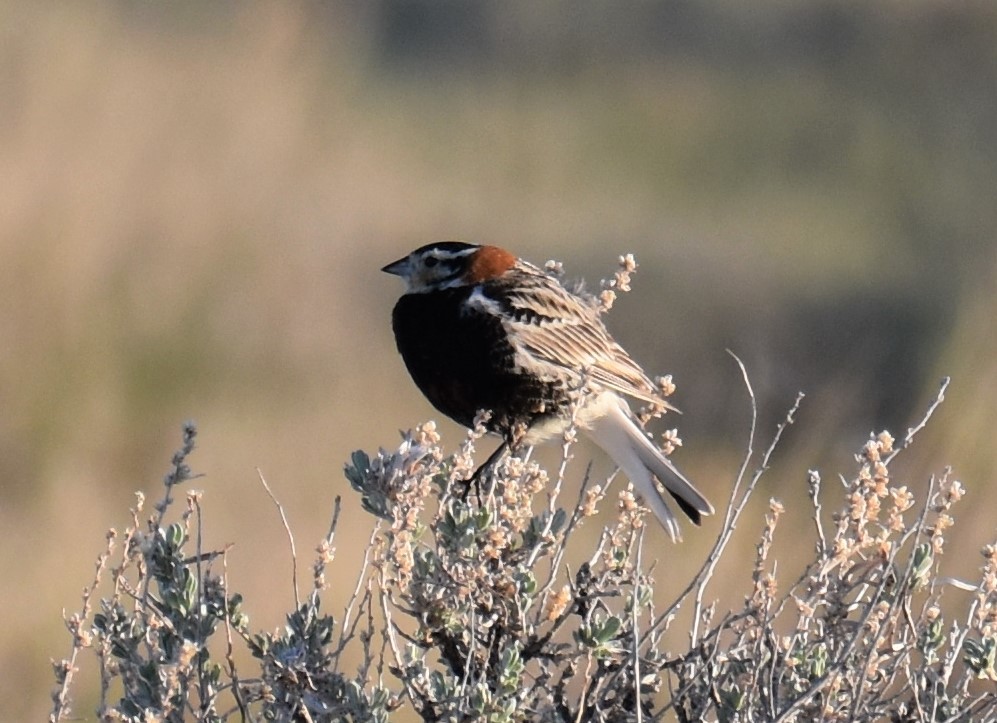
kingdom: Animalia
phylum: Chordata
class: Aves
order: Passeriformes
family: Calcariidae
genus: Calcarius
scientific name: Calcarius ornatus
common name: Chestnut-collared longspur
